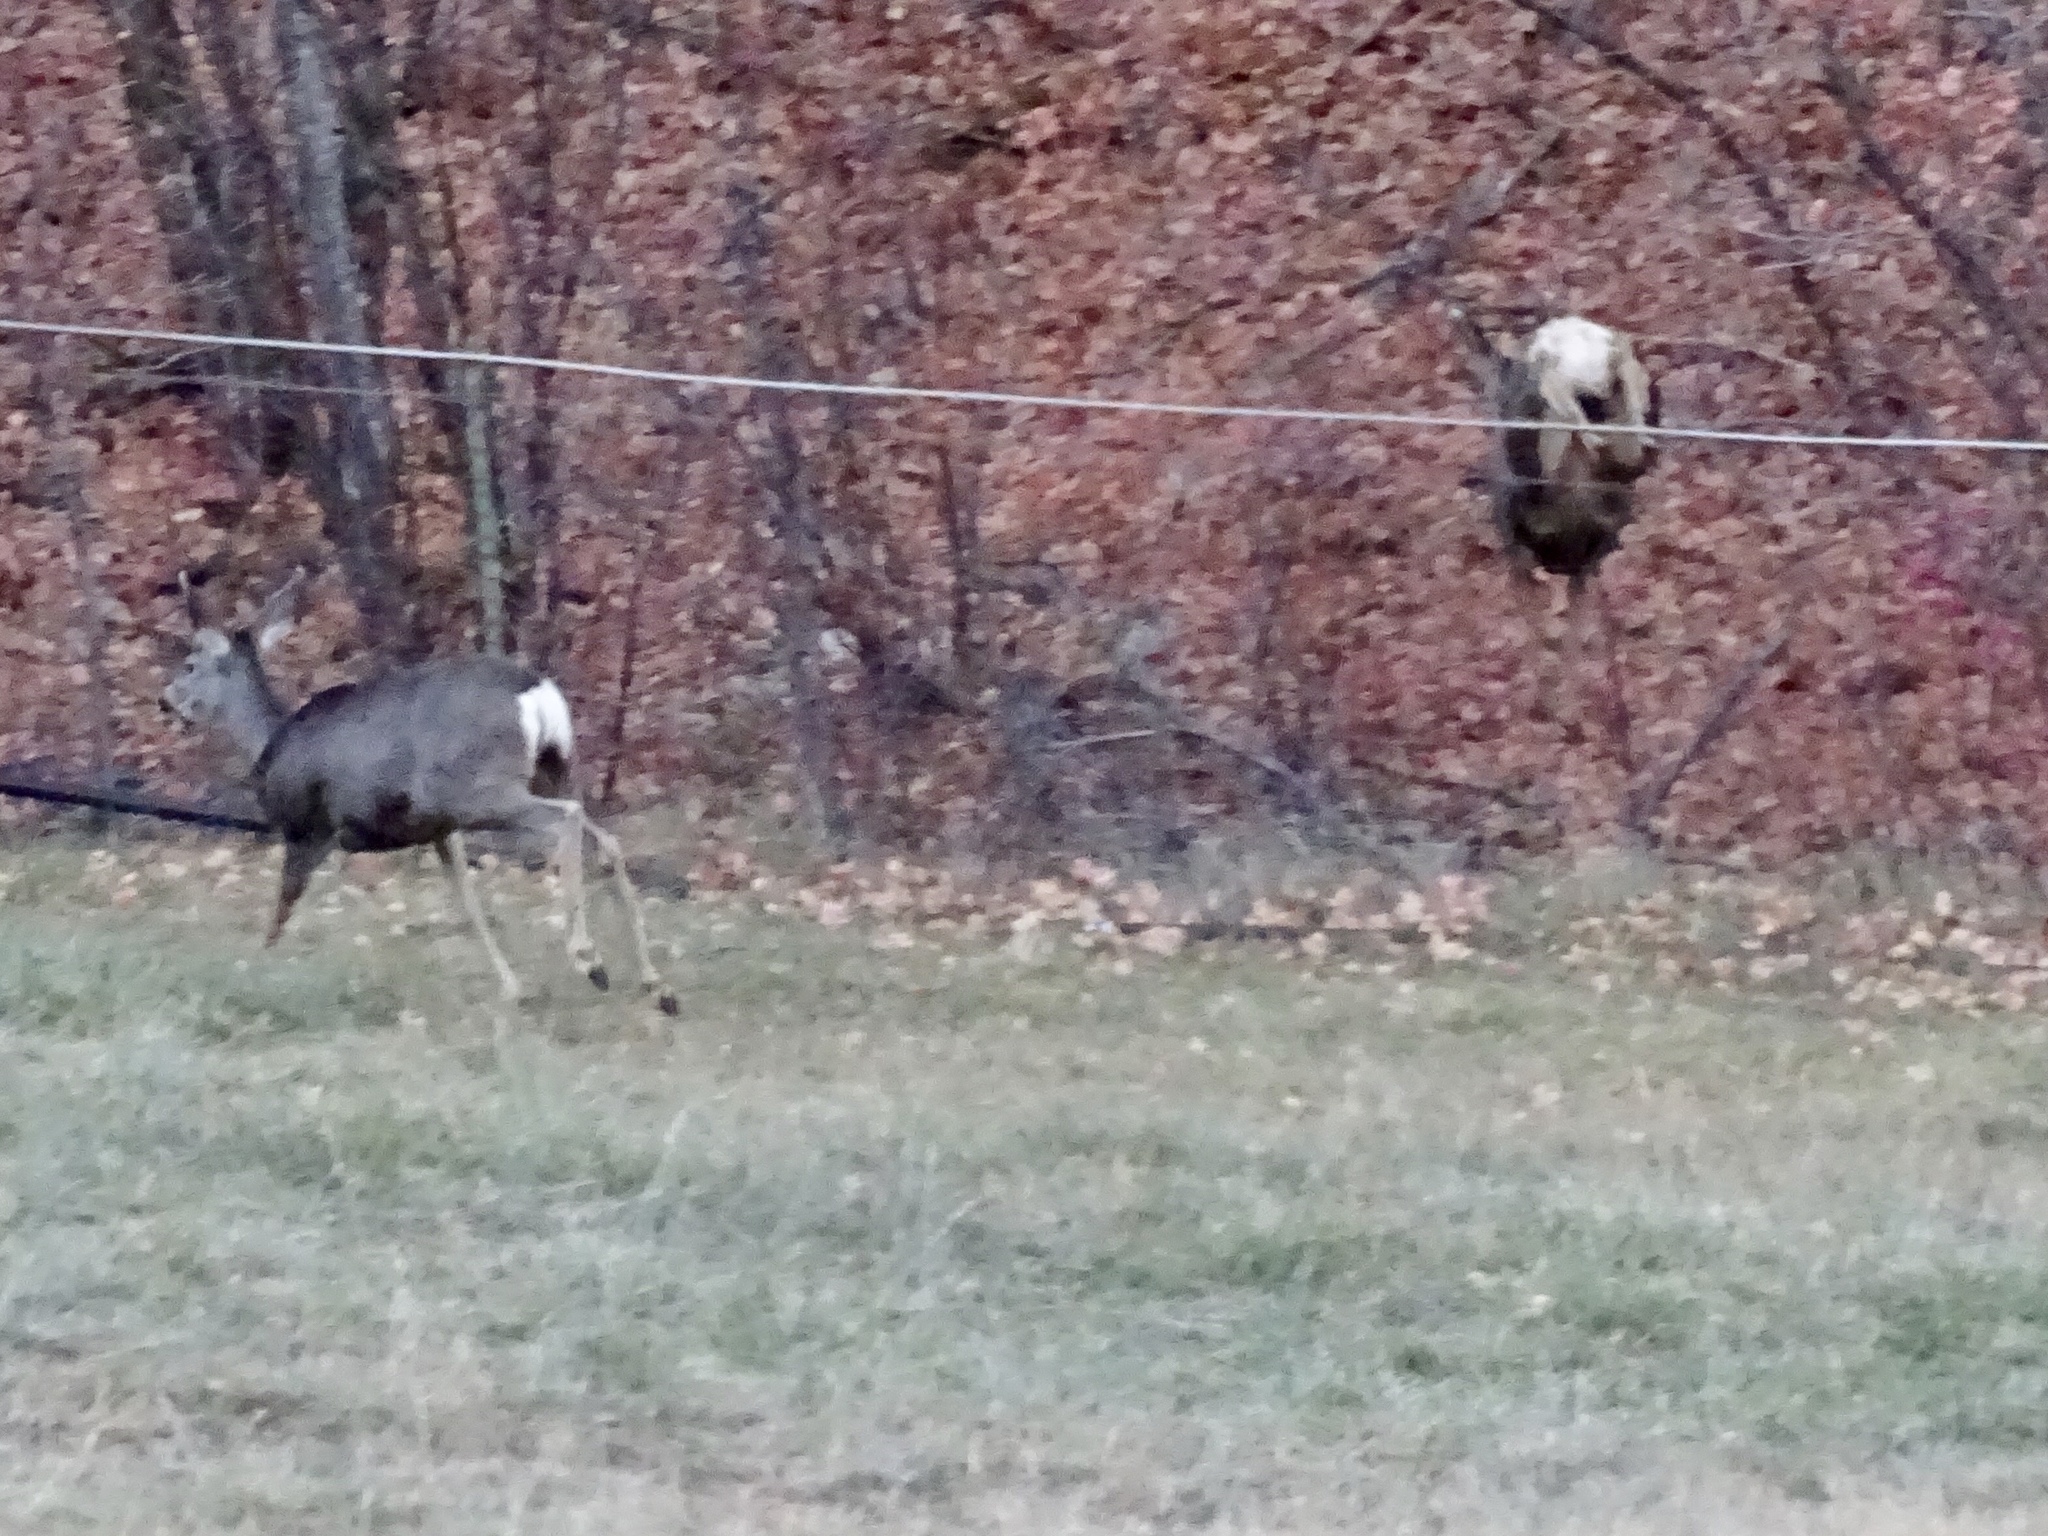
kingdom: Animalia
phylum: Chordata
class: Mammalia
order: Artiodactyla
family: Cervidae
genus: Odocoileus
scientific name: Odocoileus hemionus
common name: Mule deer
